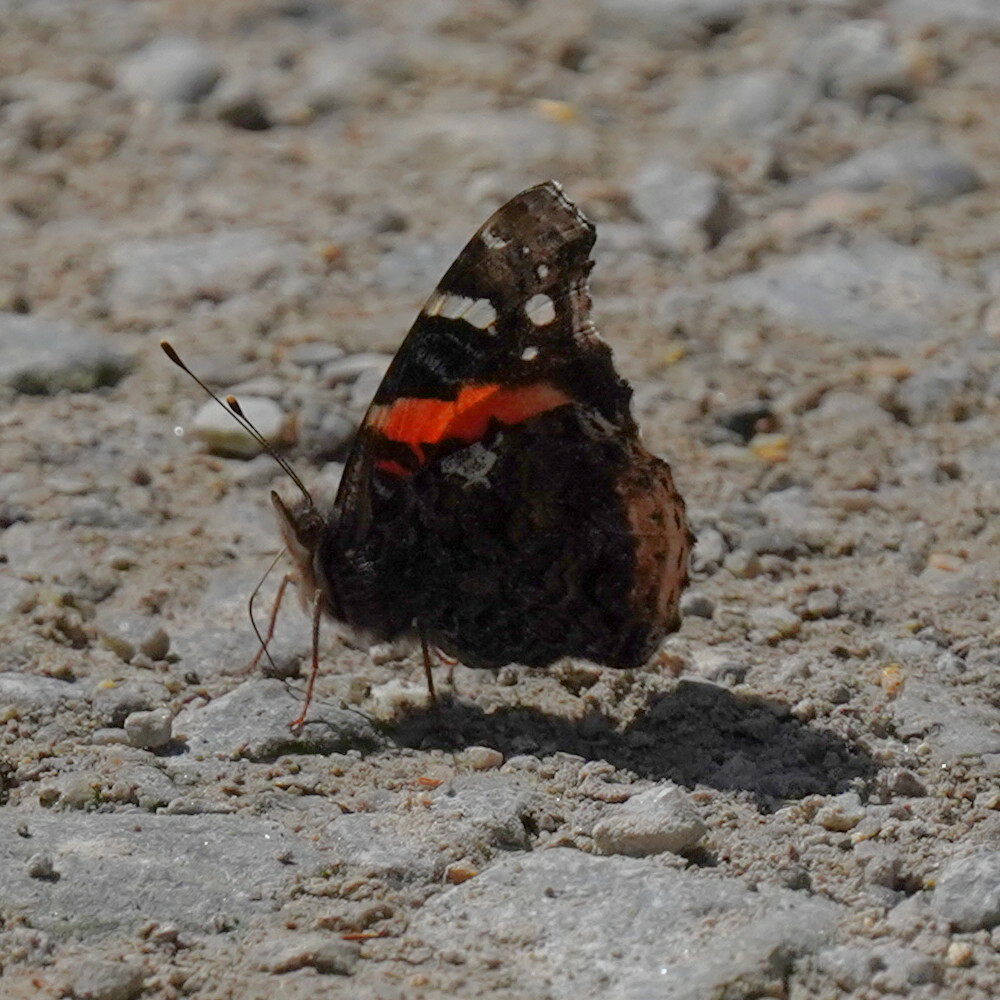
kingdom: Animalia
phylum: Arthropoda
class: Insecta
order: Lepidoptera
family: Nymphalidae
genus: Vanessa
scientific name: Vanessa atalanta
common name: Red admiral
